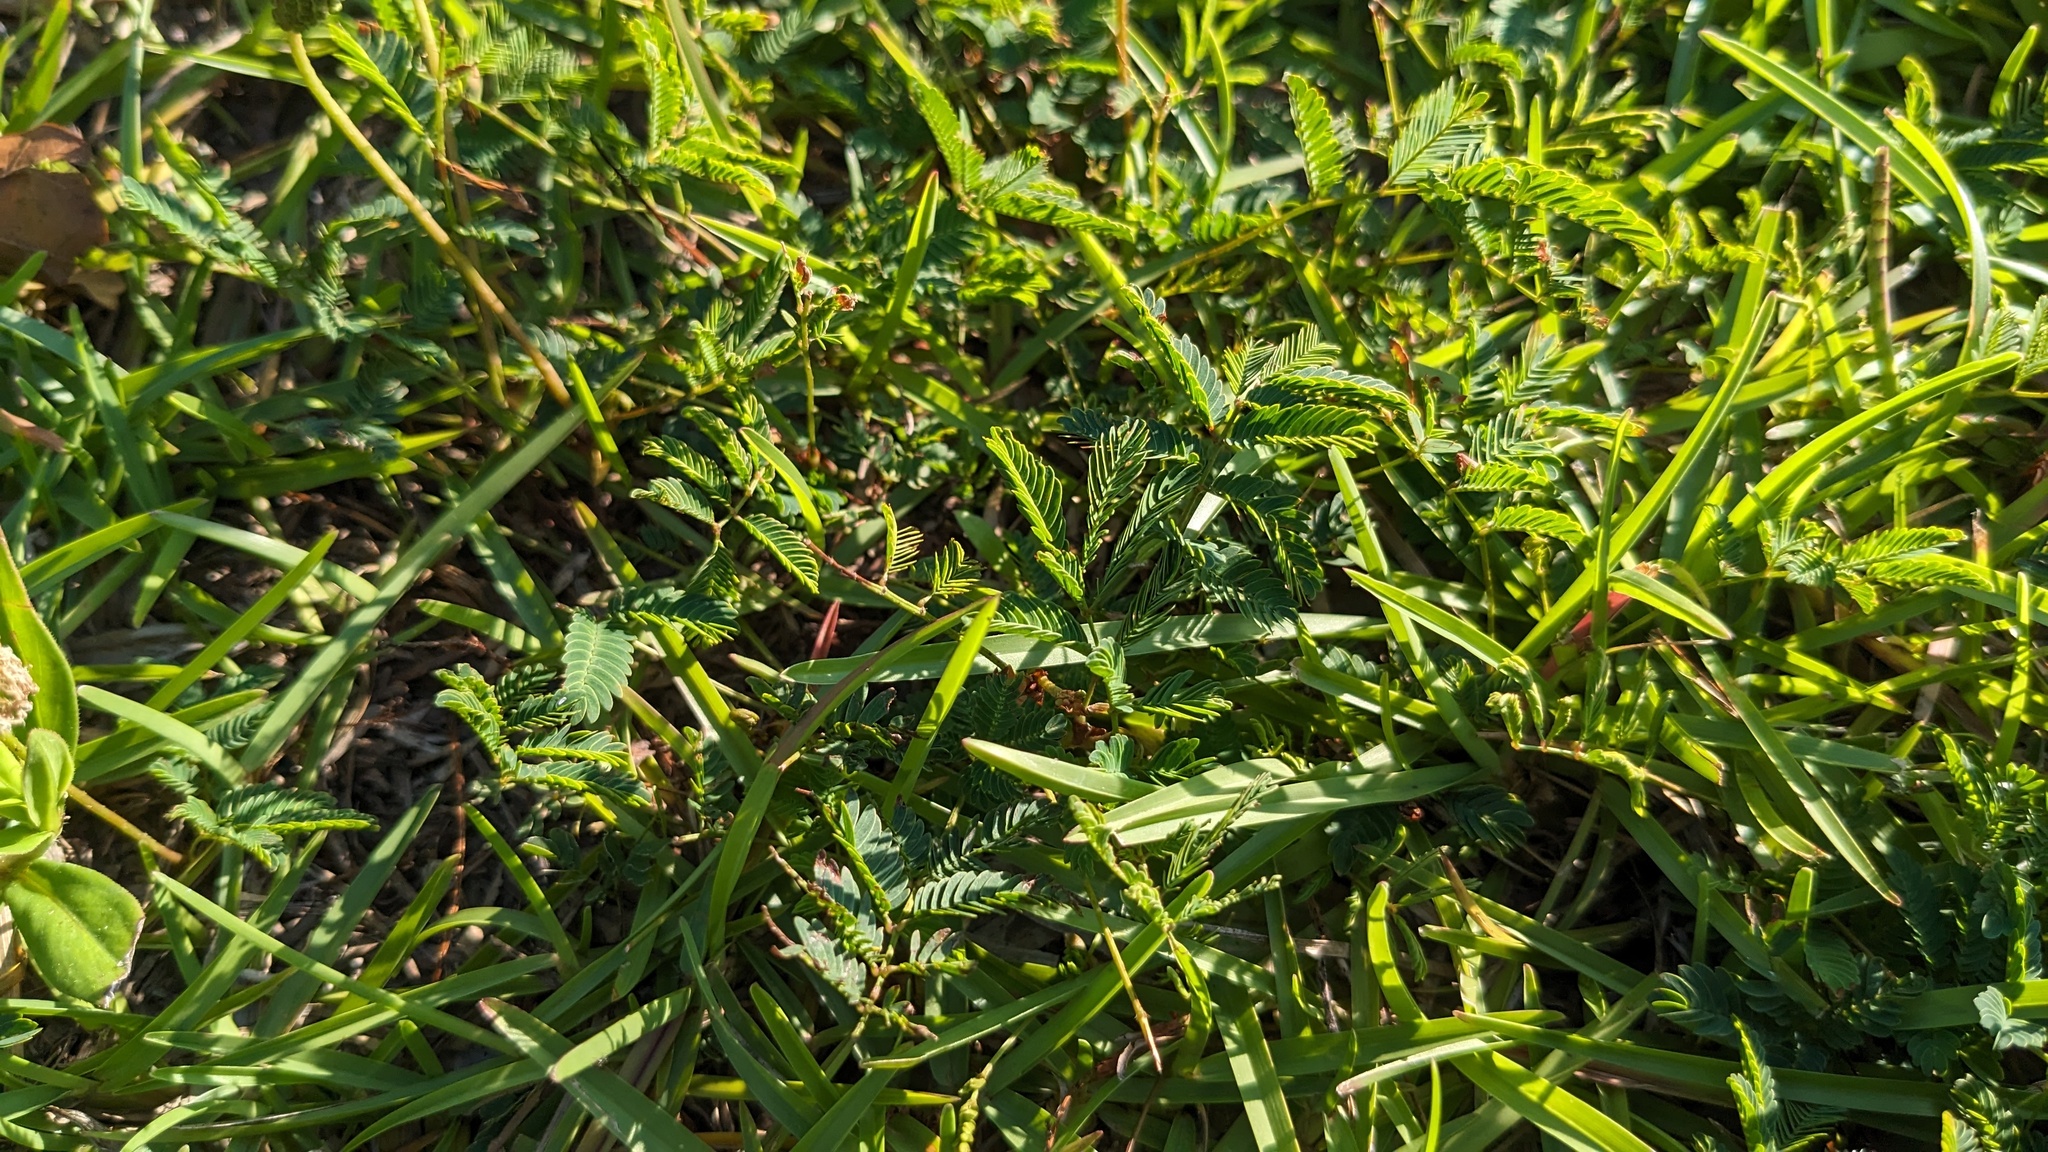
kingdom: Plantae
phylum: Tracheophyta
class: Magnoliopsida
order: Fabales
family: Fabaceae
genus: Mimosa
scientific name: Mimosa strigillosa
